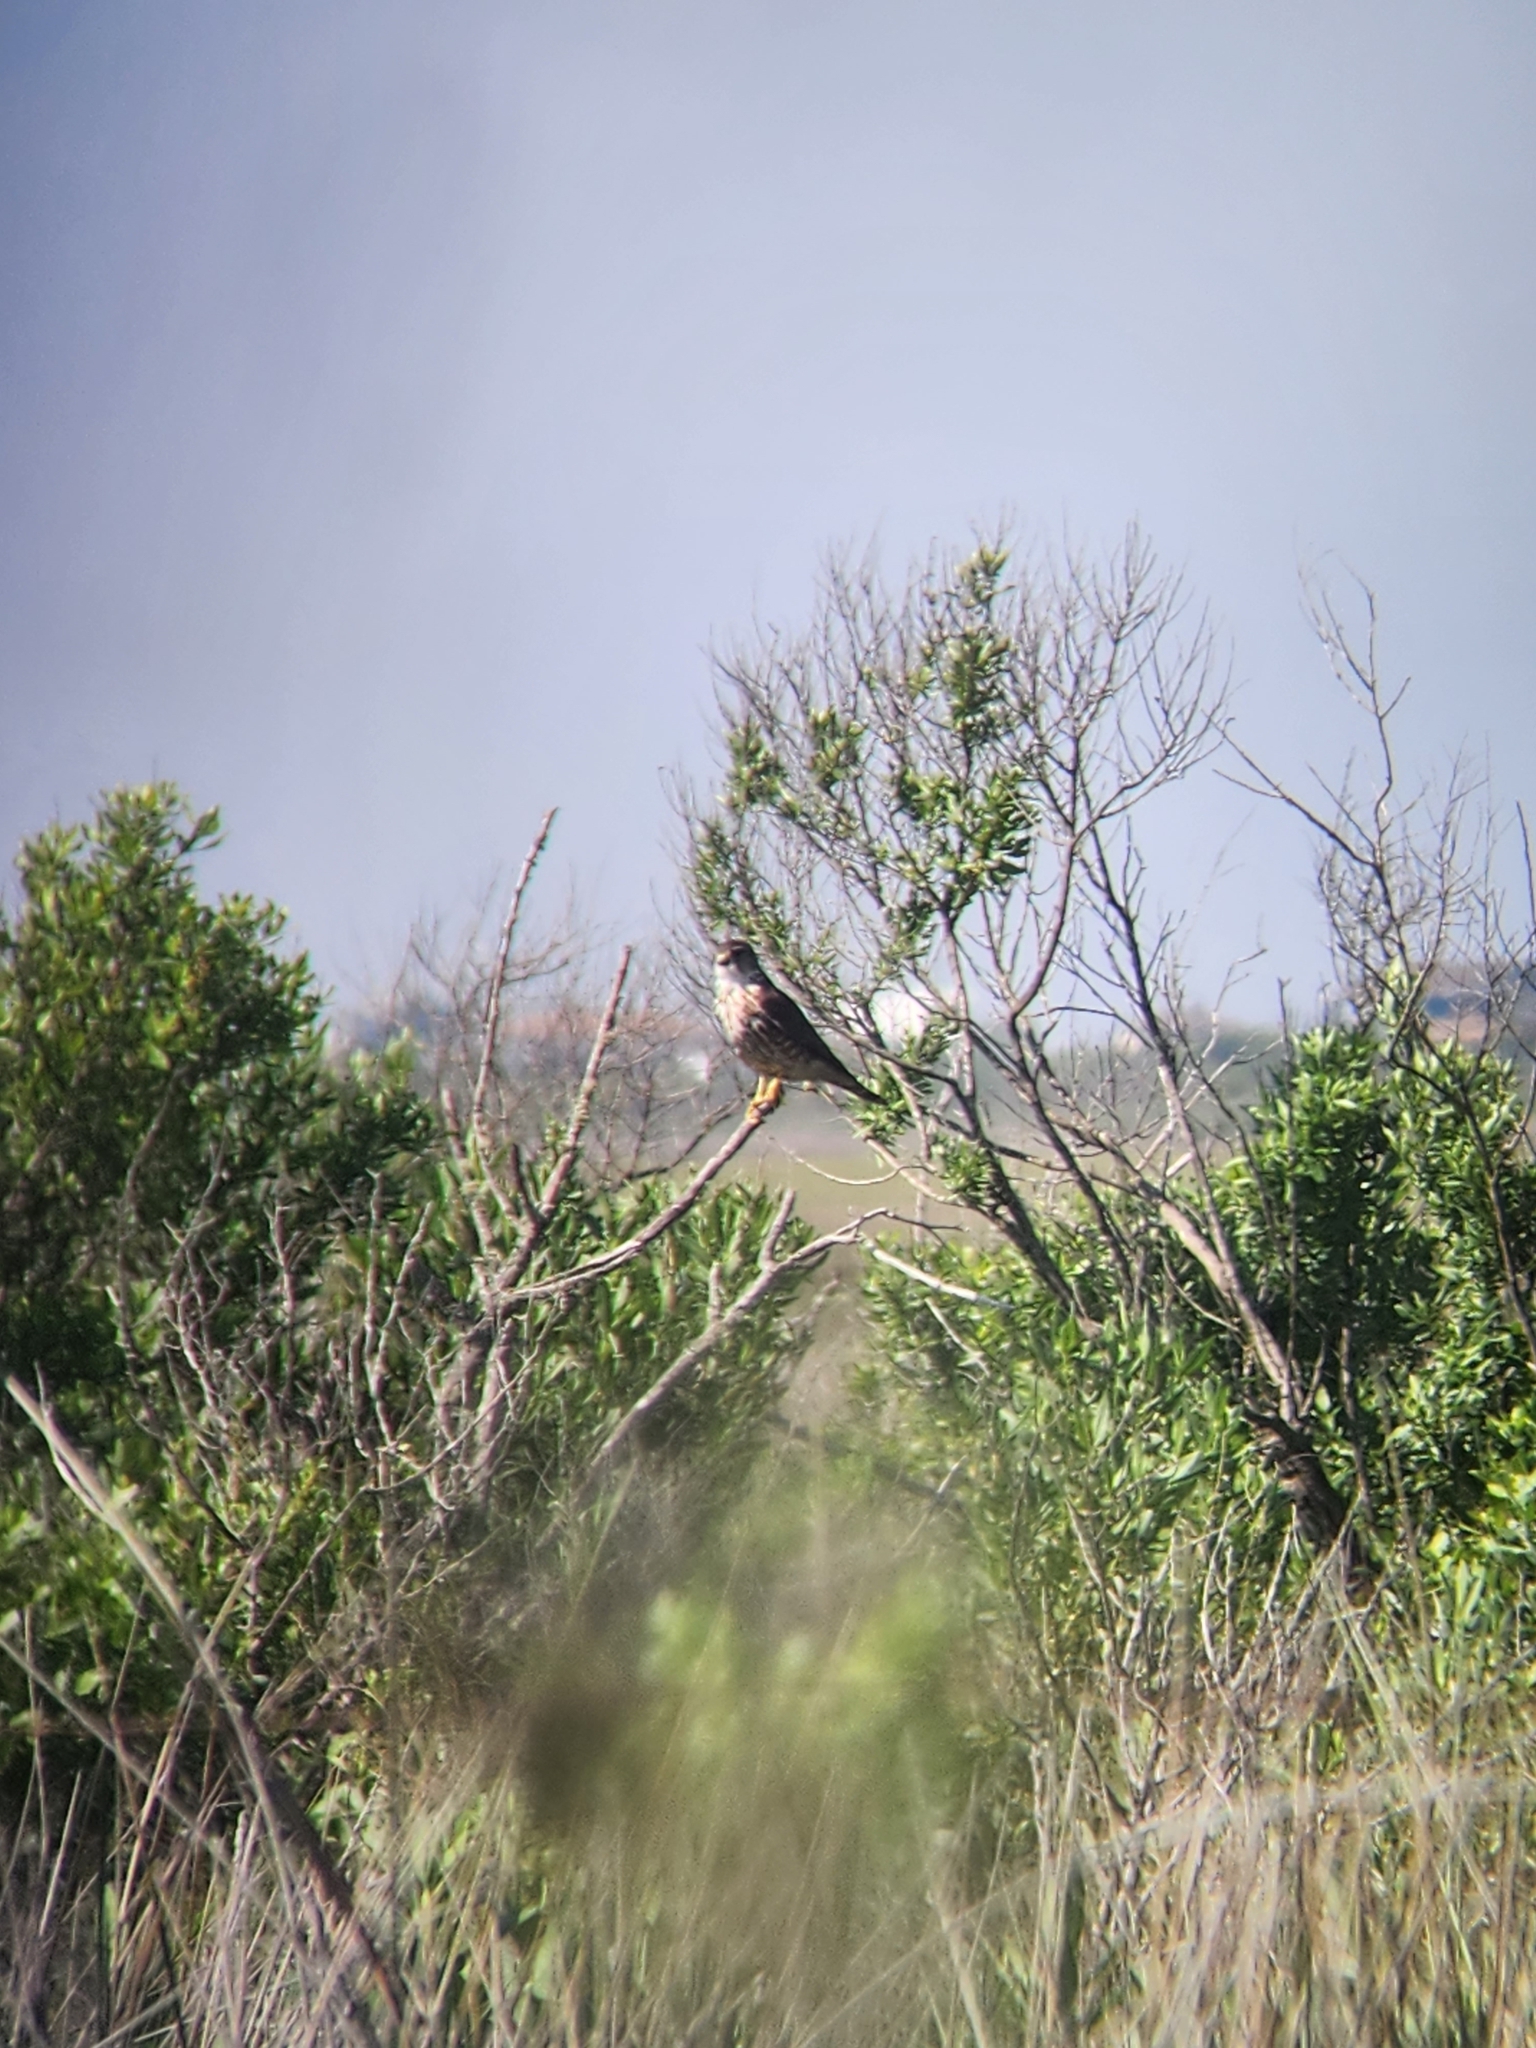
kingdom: Animalia
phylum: Chordata
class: Aves
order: Falconiformes
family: Falconidae
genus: Falco
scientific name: Falco columbarius
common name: Merlin
